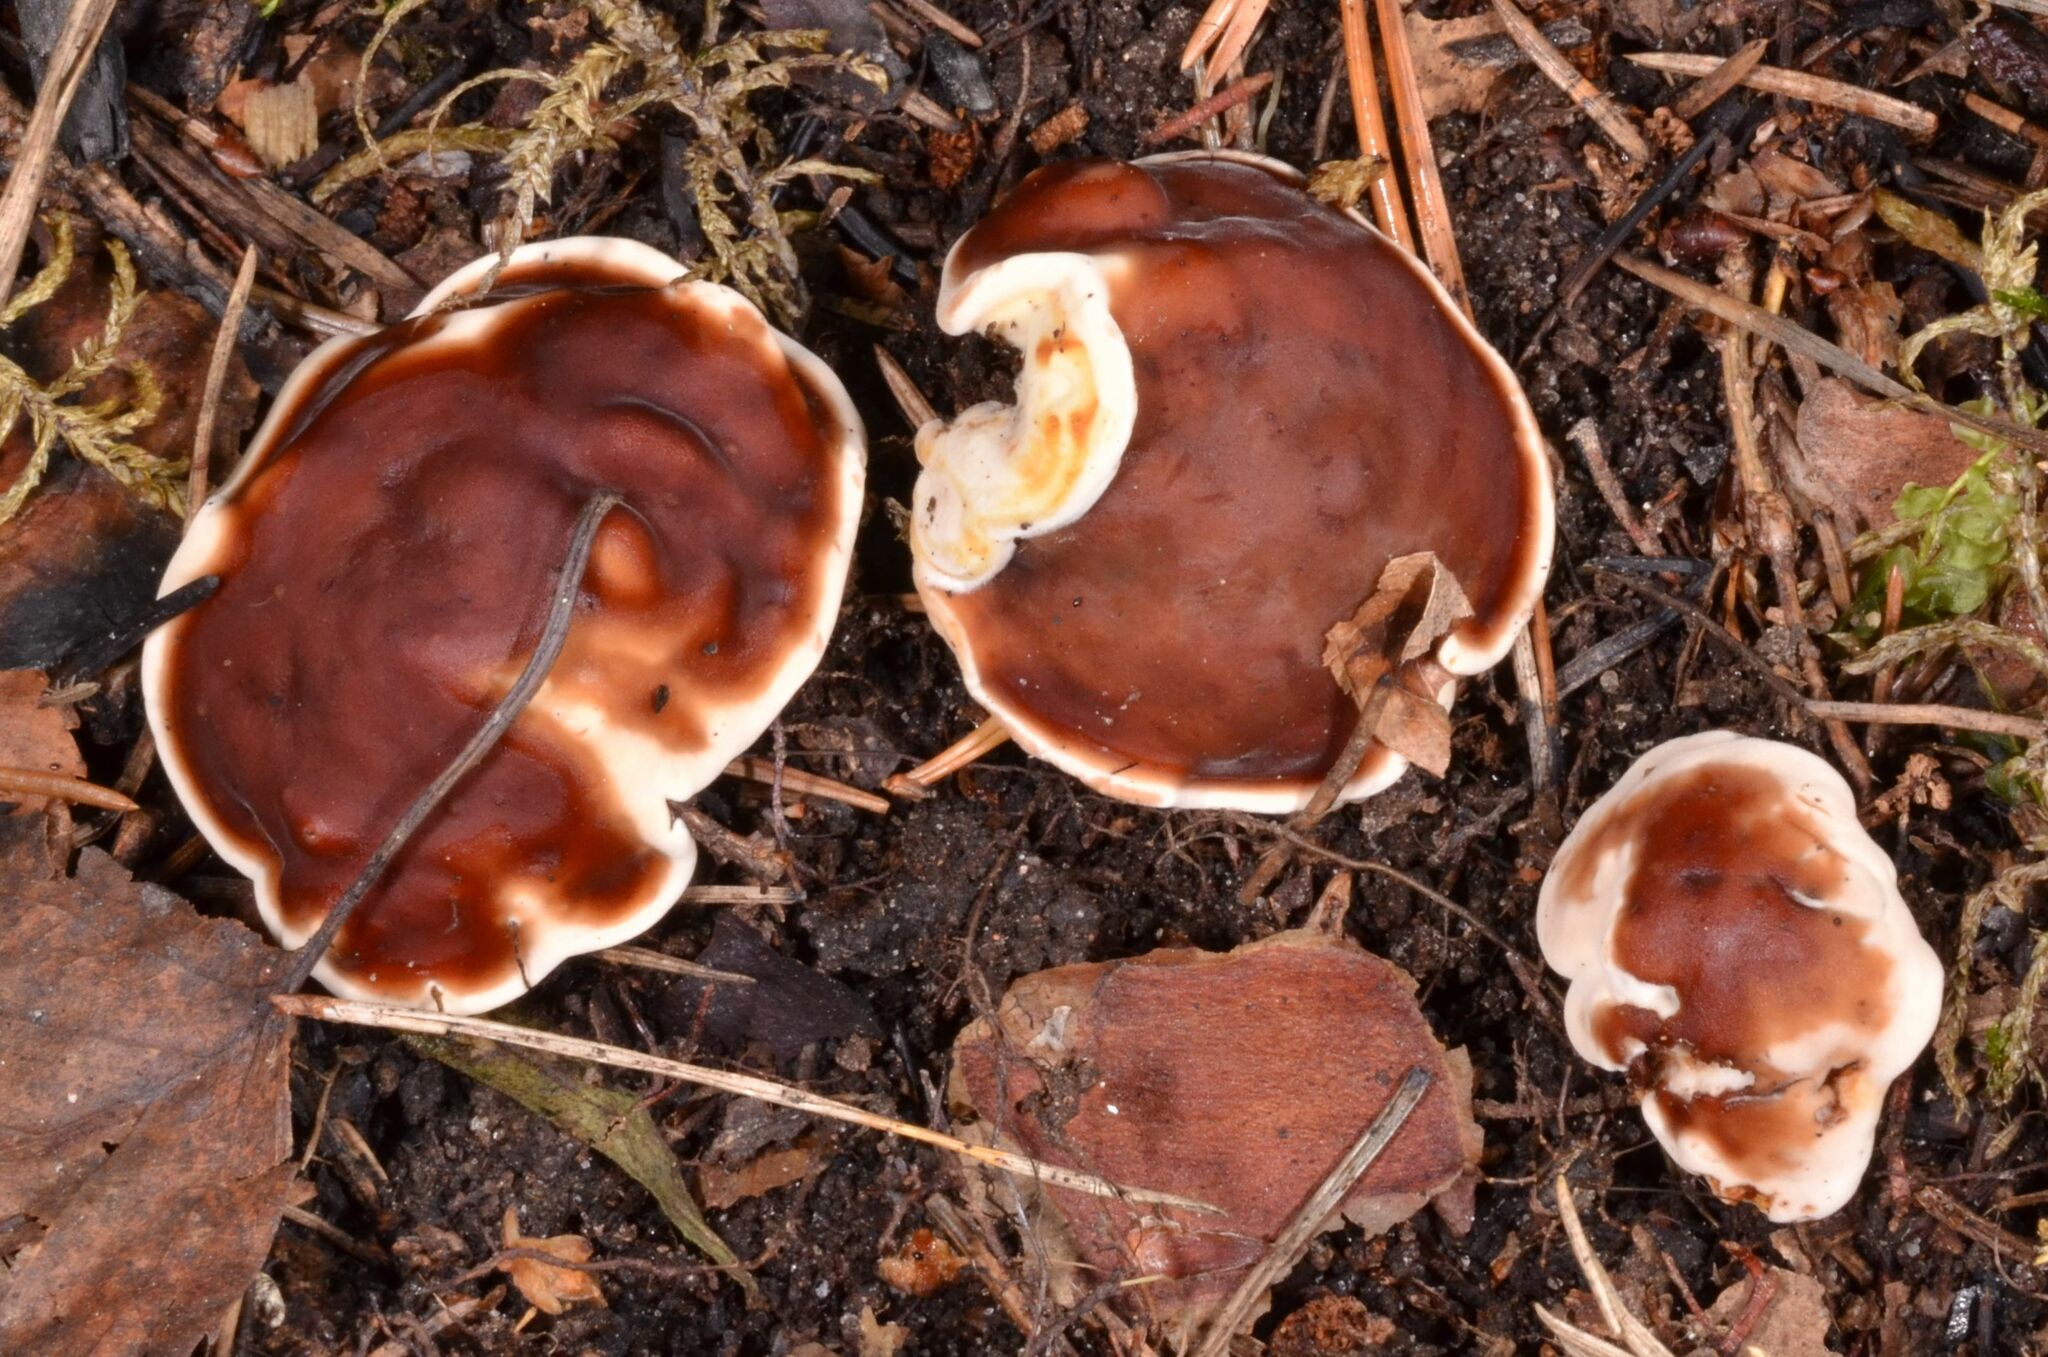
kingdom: Fungi
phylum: Ascomycota
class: Pezizomycetes
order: Pezizales
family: Rhizinaceae
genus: Rhizina
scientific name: Rhizina undulata
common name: Pine firefungus
